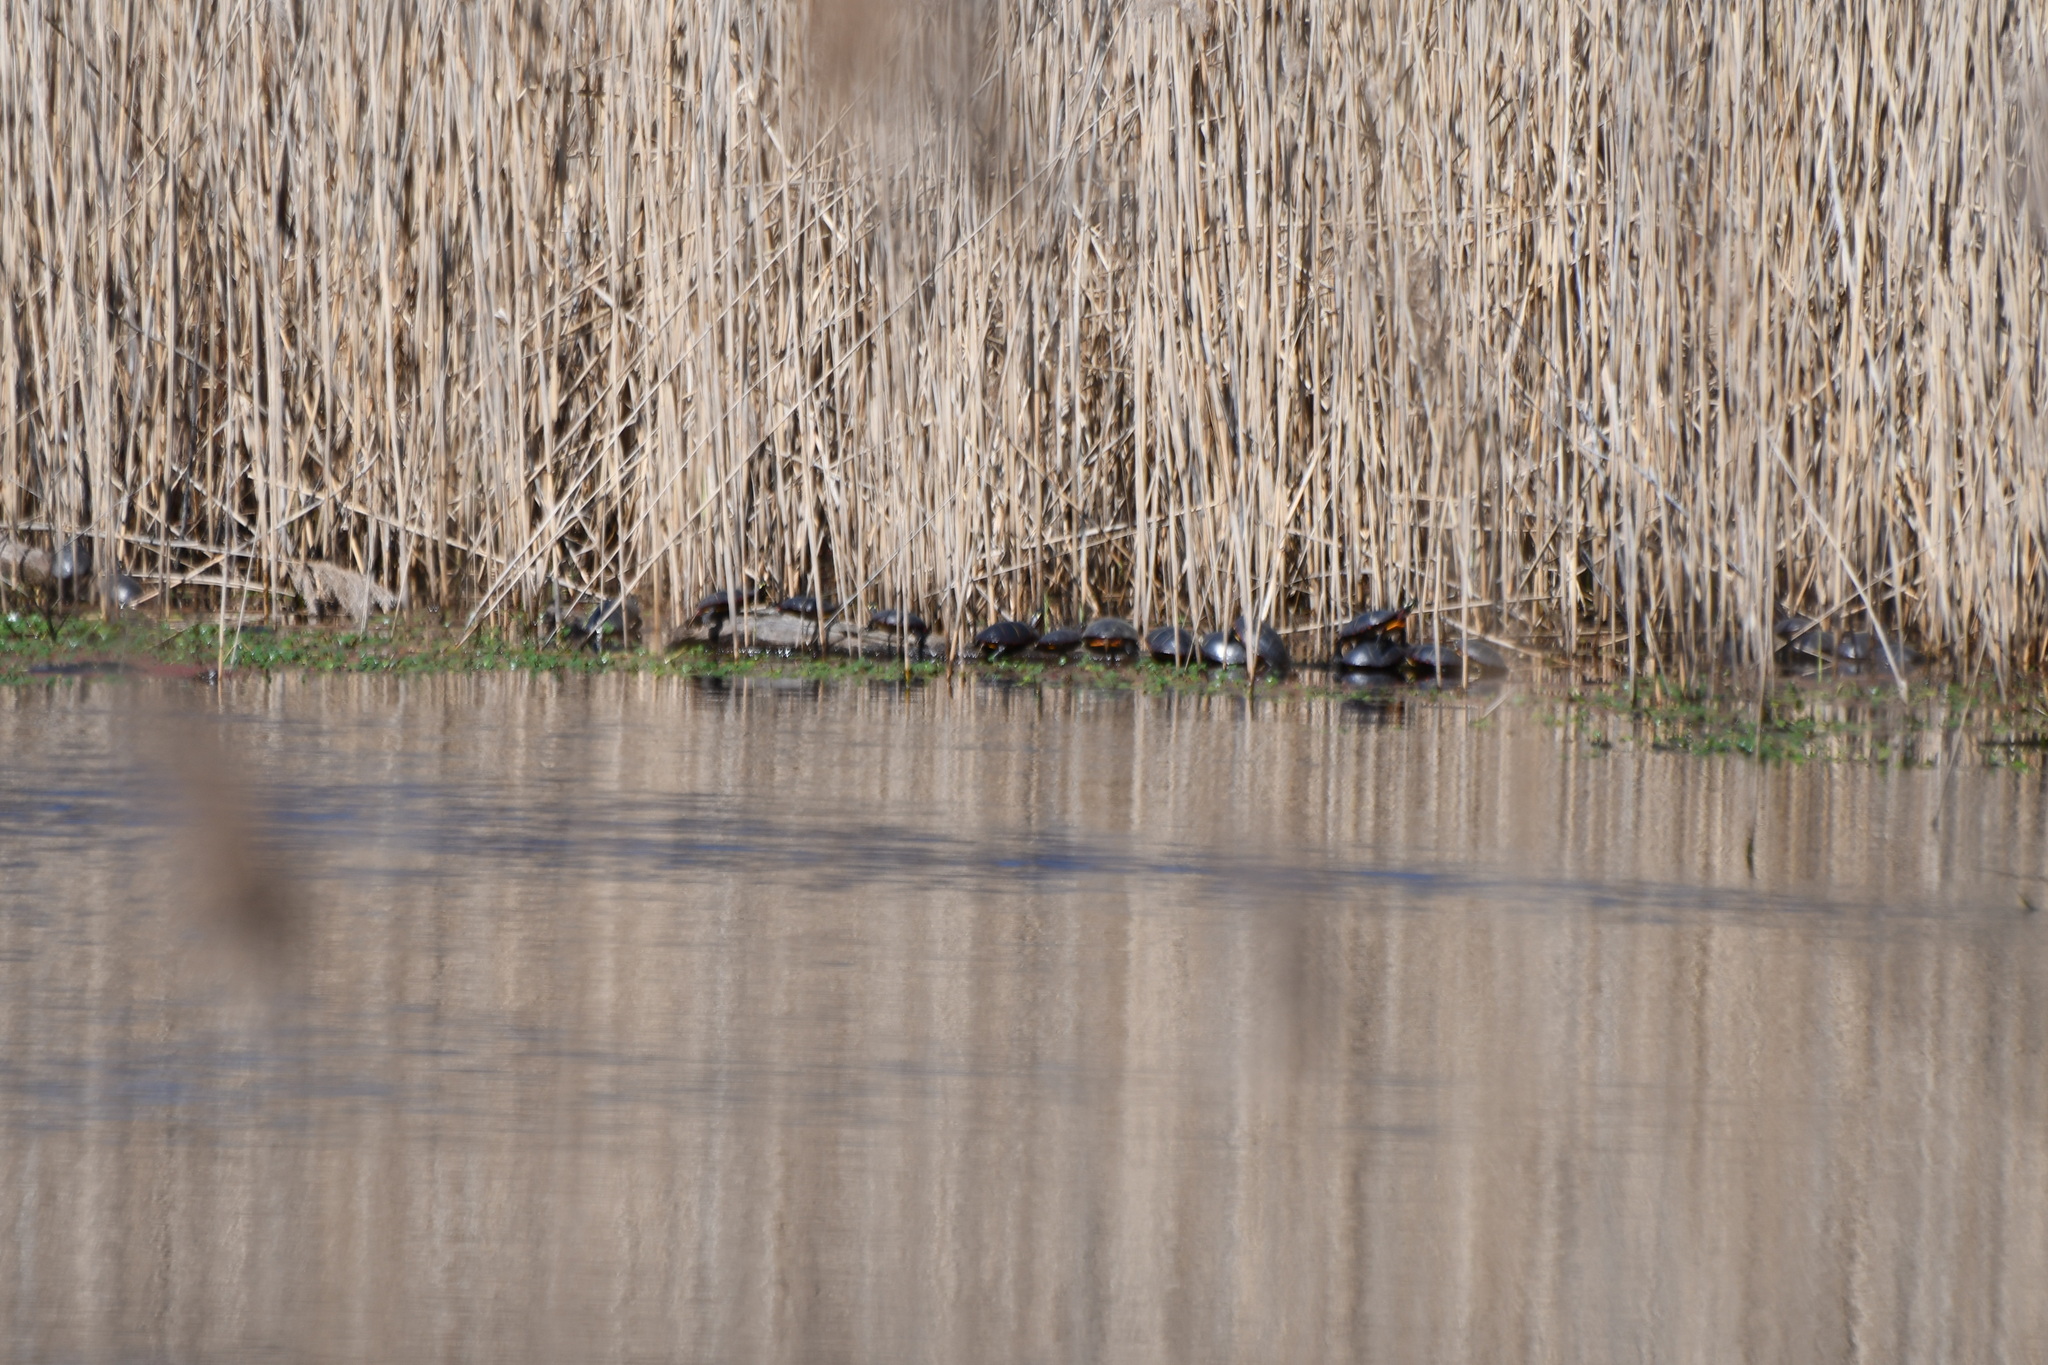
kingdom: Animalia
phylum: Chordata
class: Testudines
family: Emydidae
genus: Chrysemys
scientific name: Chrysemys picta
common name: Painted turtle
